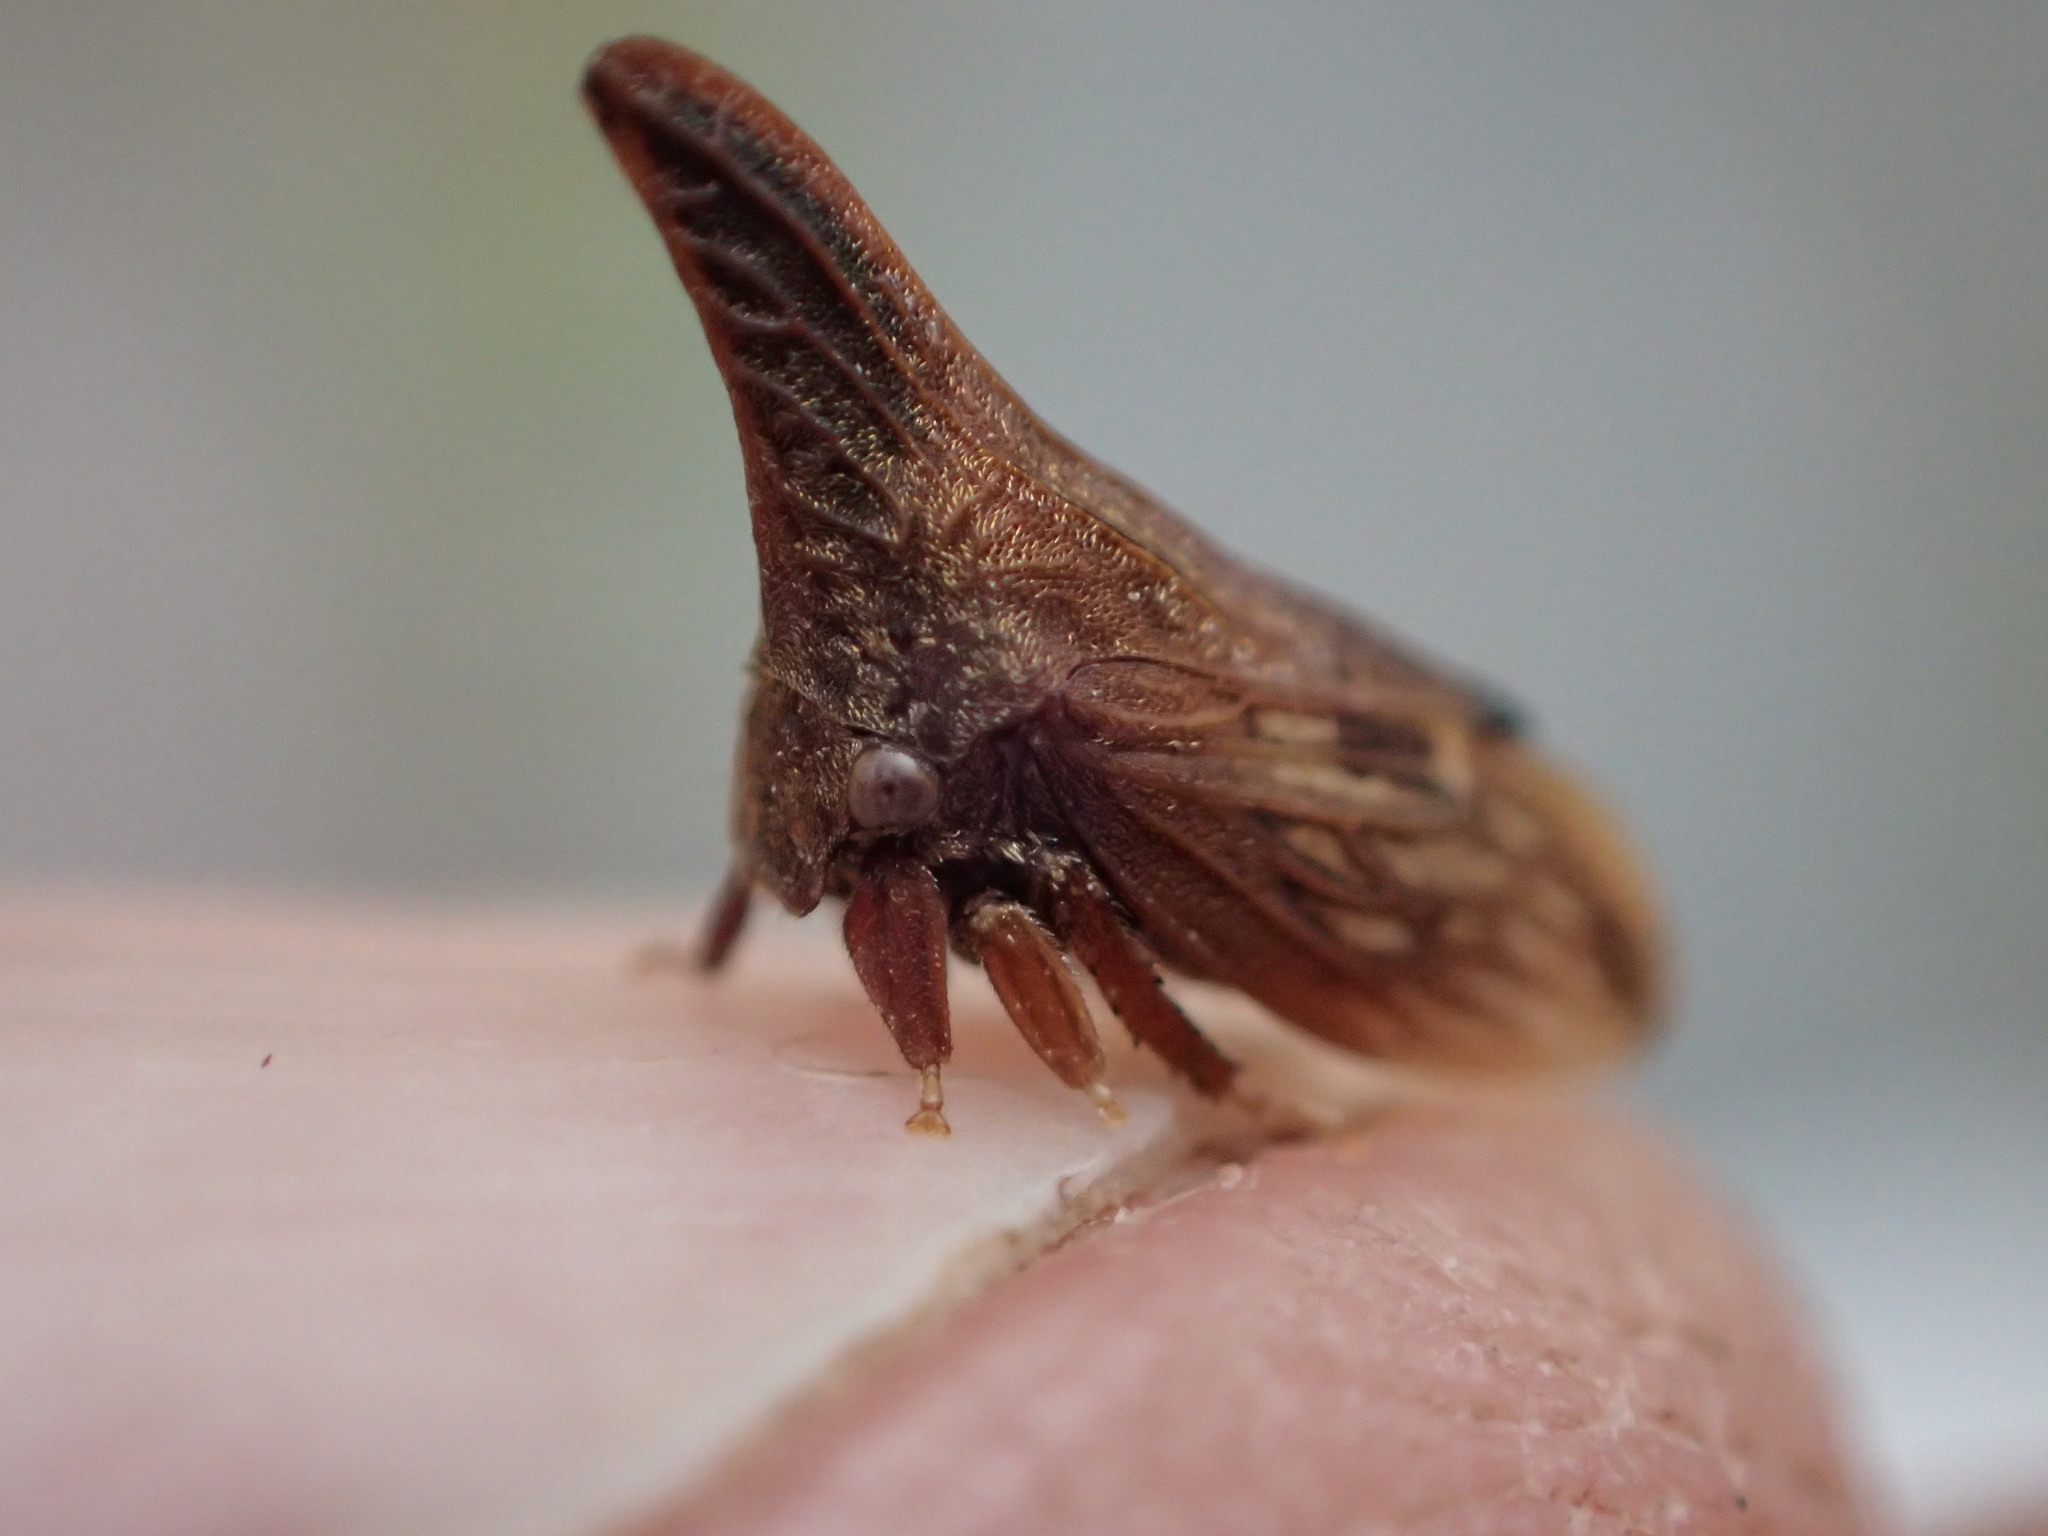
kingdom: Animalia
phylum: Arthropoda
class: Insecta
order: Hemiptera
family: Membracidae
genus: Enchenopa
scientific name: Enchenopa latipes
